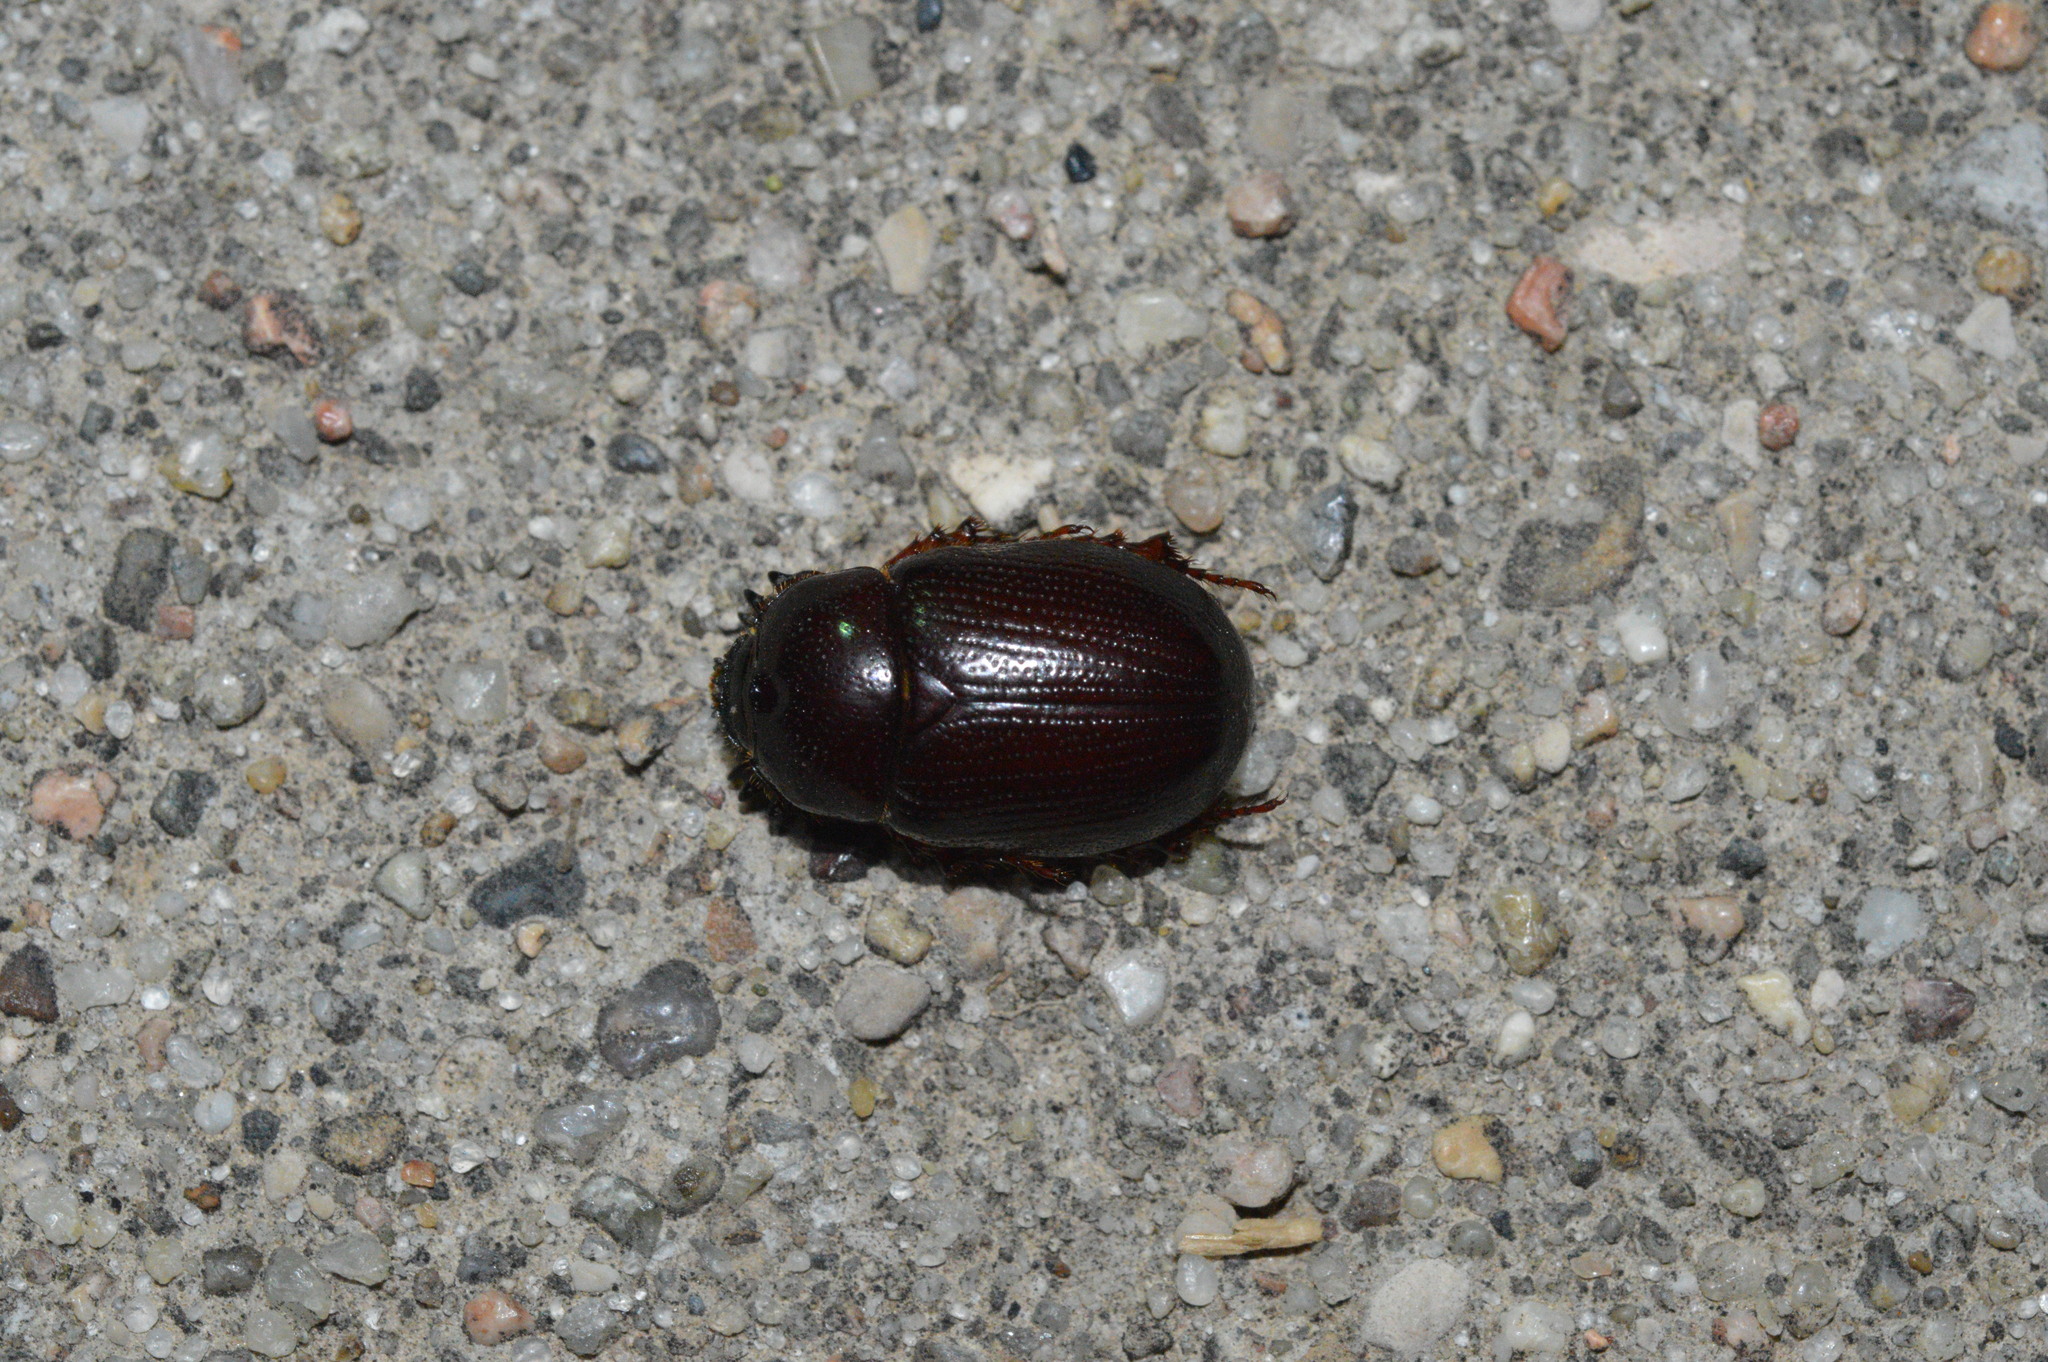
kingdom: Animalia
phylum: Arthropoda
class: Insecta
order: Coleoptera
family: Scarabaeidae
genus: Ligyrus
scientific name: Ligyrus gibbosus
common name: Carrot beetle
